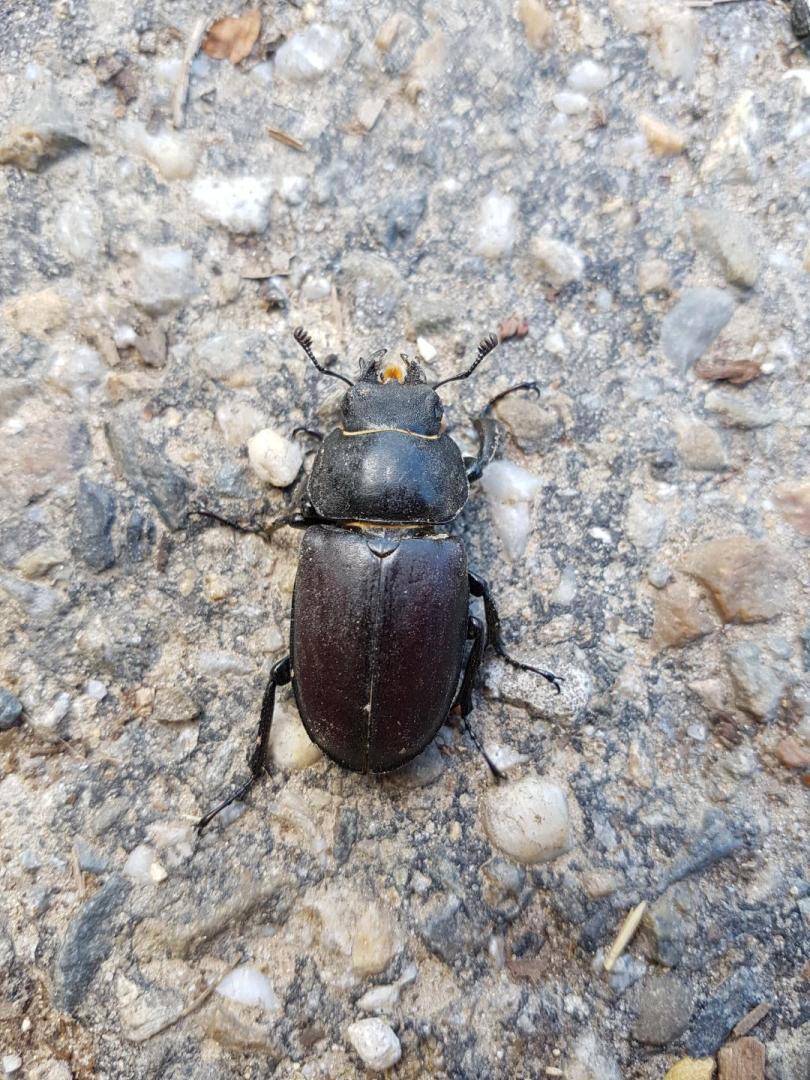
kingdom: Animalia
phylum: Arthropoda
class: Insecta
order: Coleoptera
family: Lucanidae
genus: Lucanus
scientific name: Lucanus cervus
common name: Stag beetle
